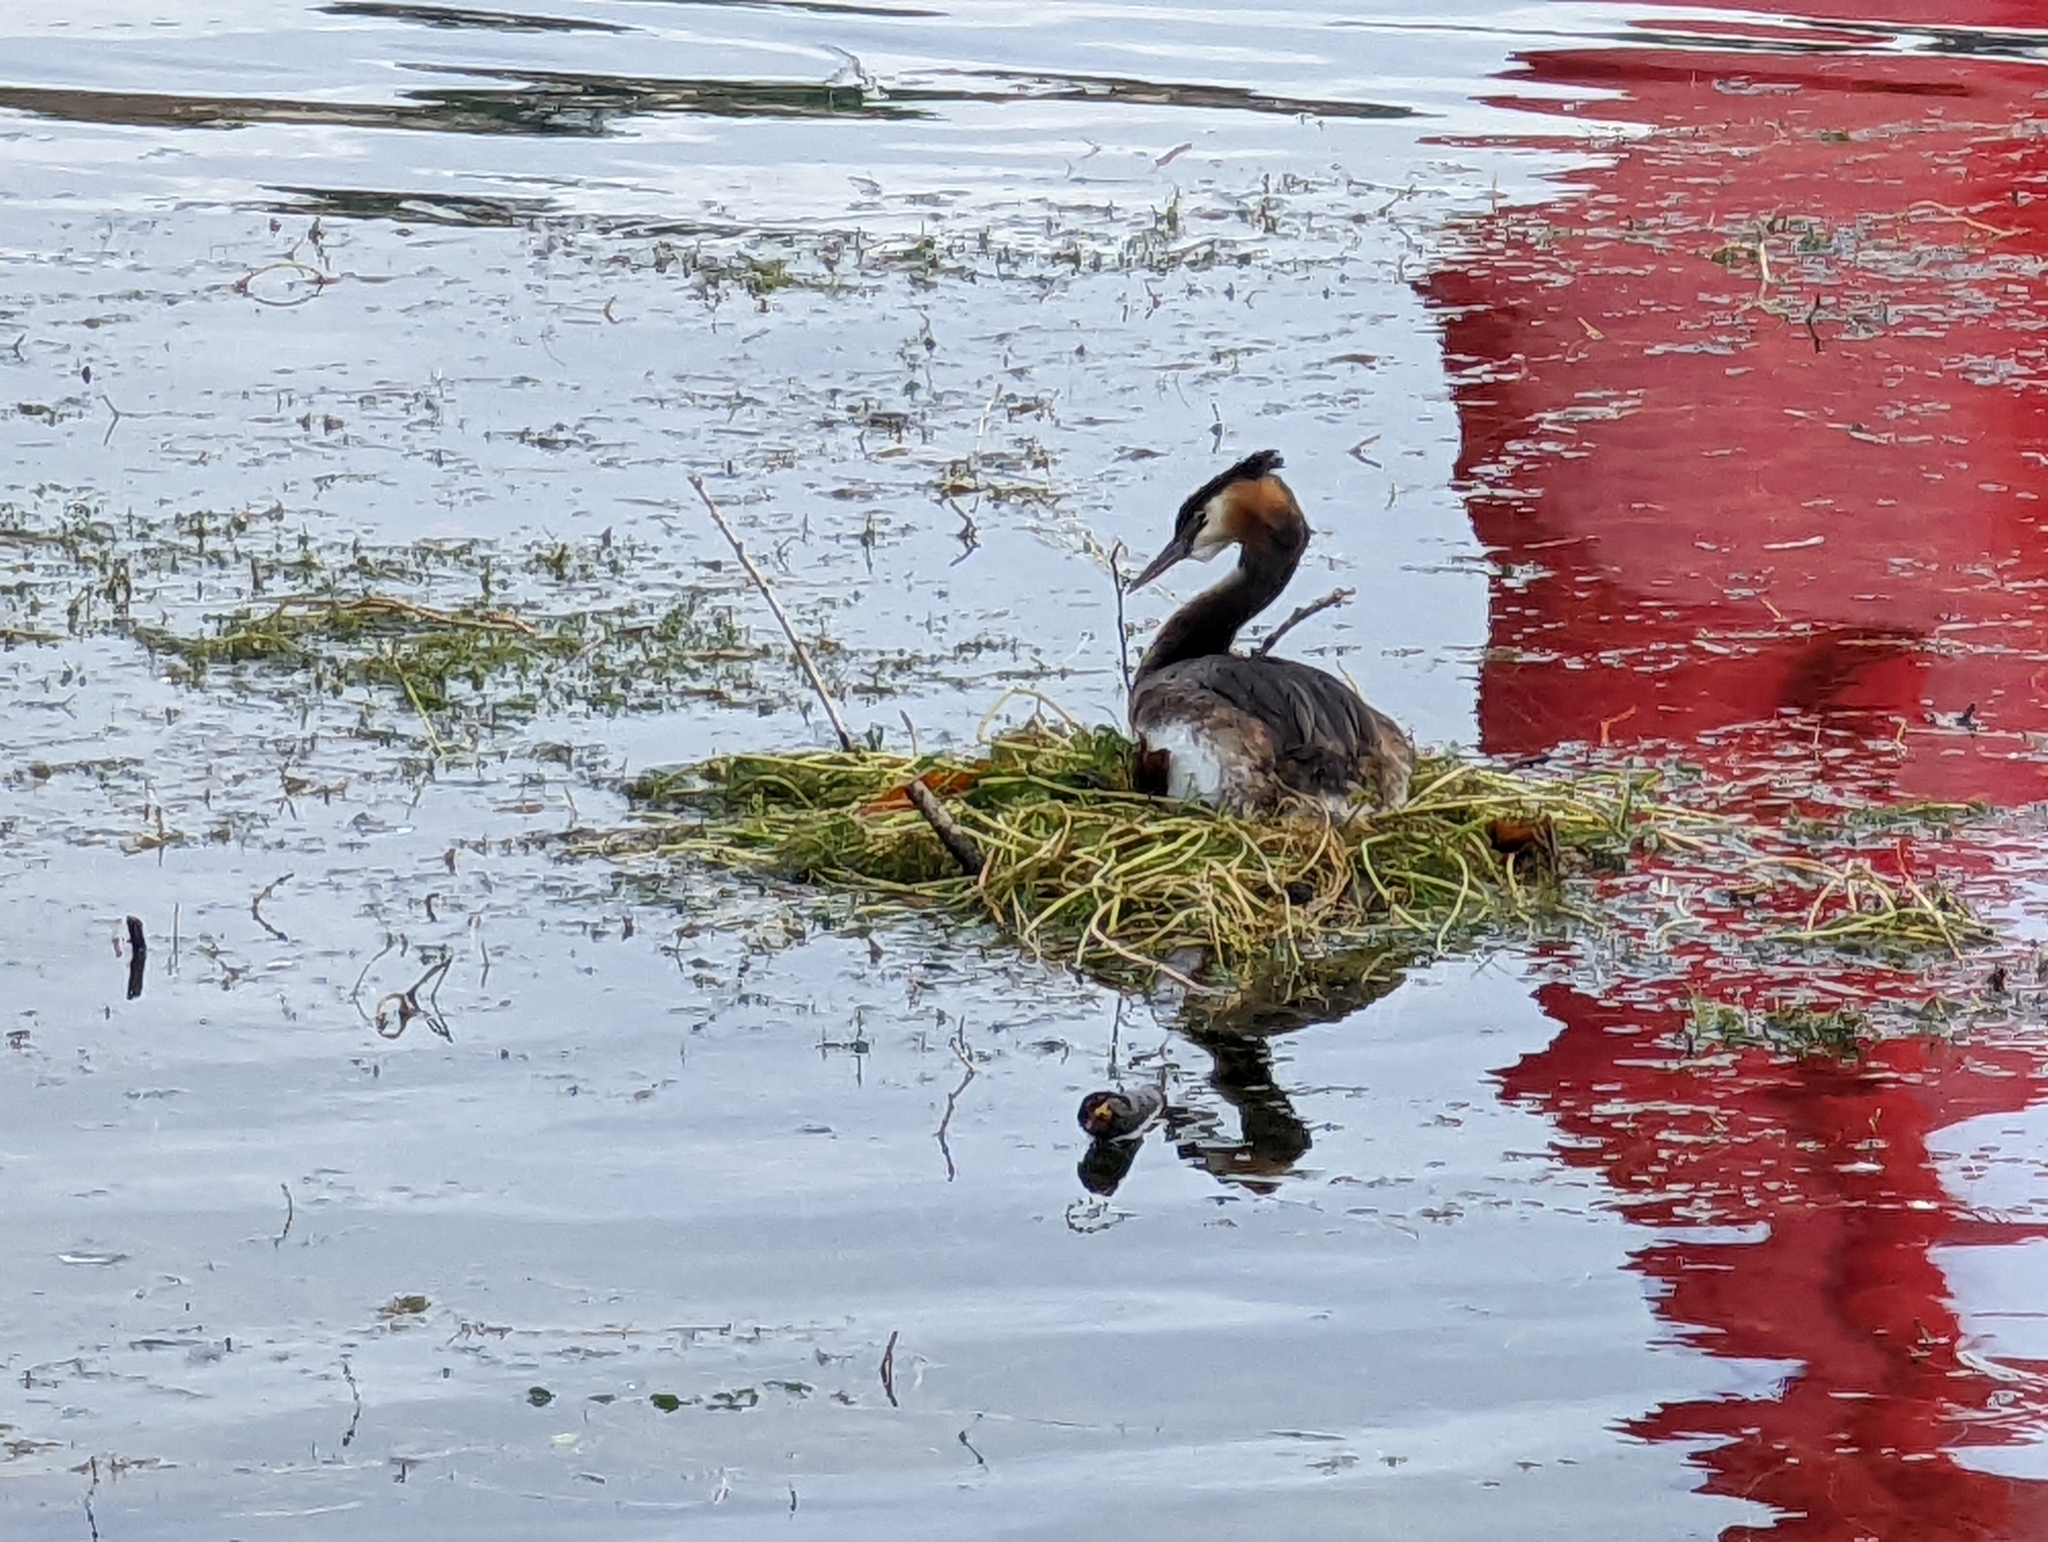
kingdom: Animalia
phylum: Chordata
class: Aves
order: Podicipediformes
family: Podicipedidae
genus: Podiceps
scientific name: Podiceps cristatus
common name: Great crested grebe
